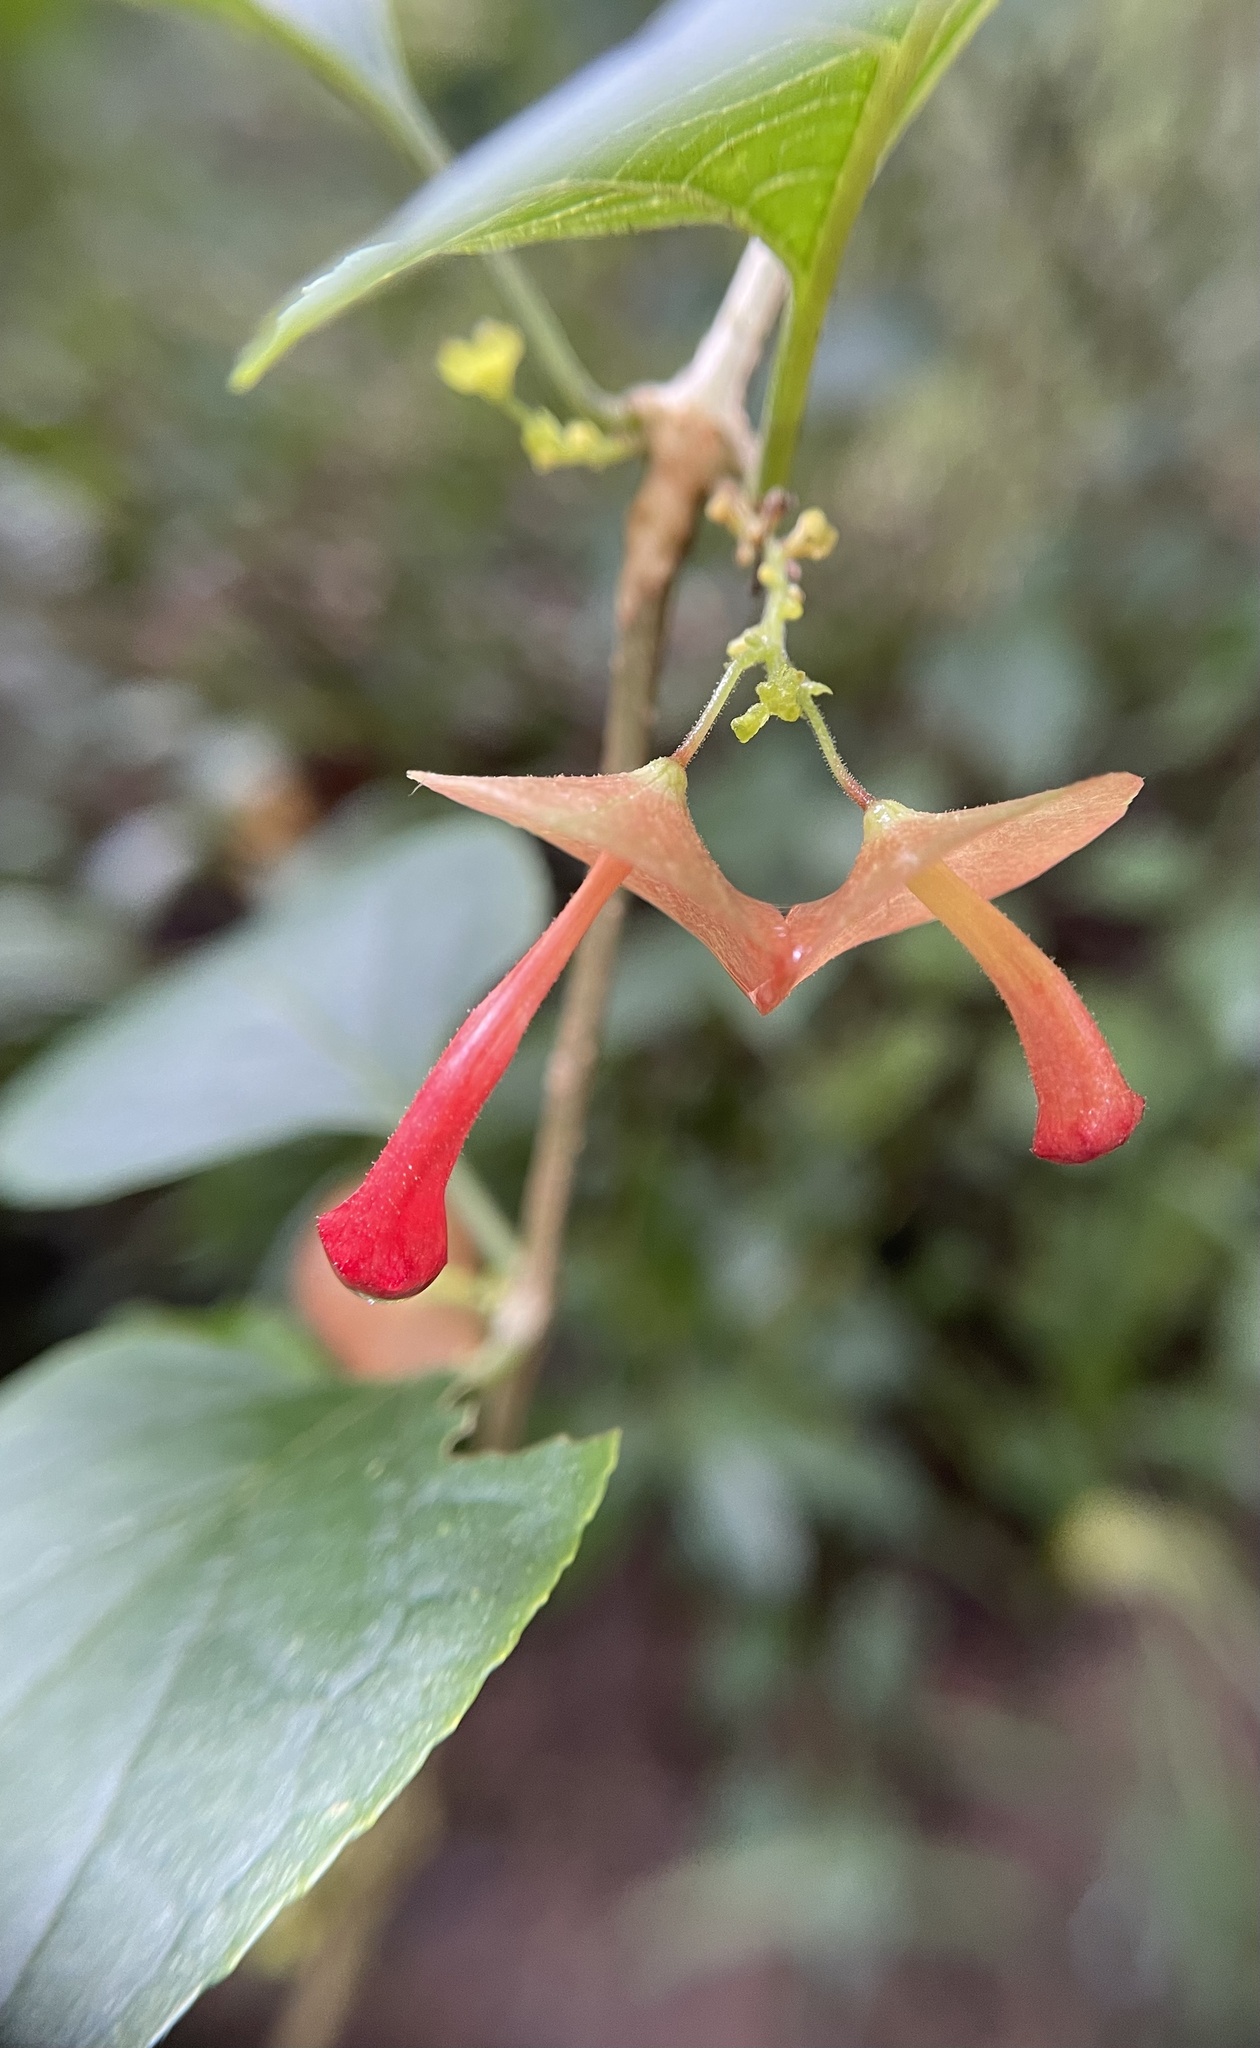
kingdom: Plantae
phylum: Tracheophyta
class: Magnoliopsida
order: Lamiales
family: Lamiaceae
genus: Holmskioldia
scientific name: Holmskioldia sanguinea
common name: Chinese hatplant
